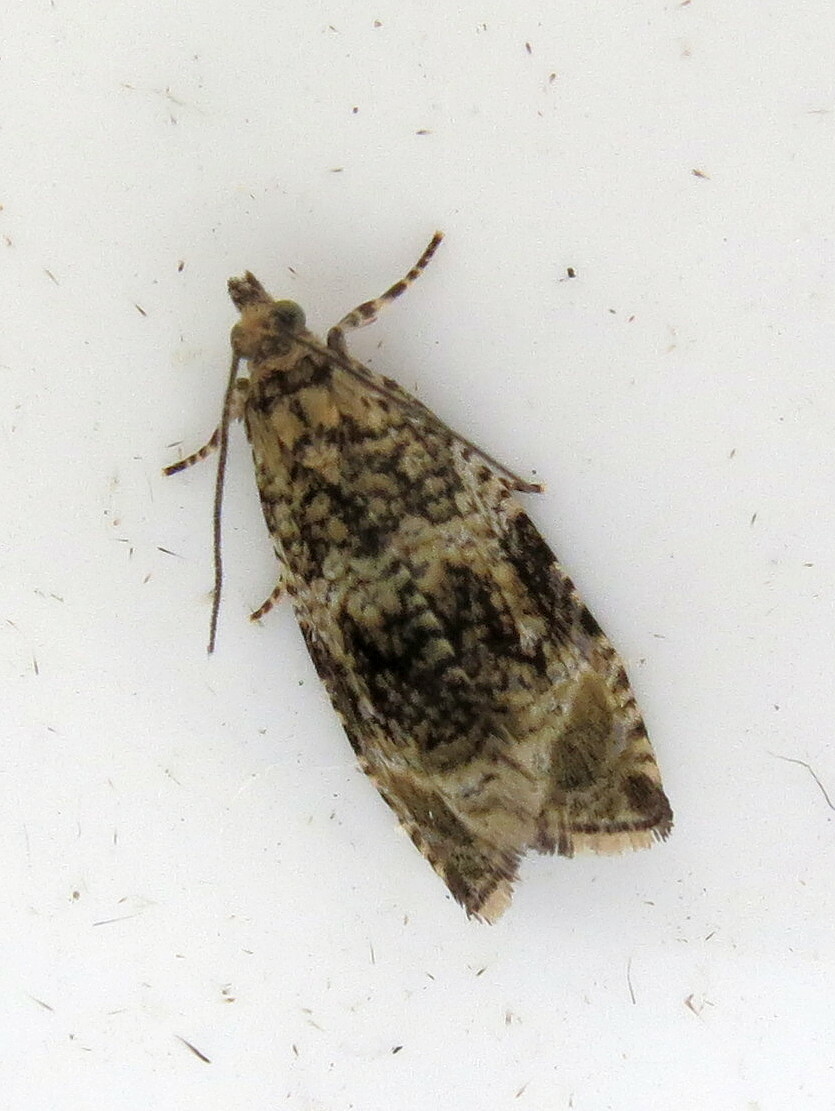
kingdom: Animalia
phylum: Arthropoda
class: Insecta
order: Lepidoptera
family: Tortricidae
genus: Syricoris
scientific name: Syricoris lacunana
